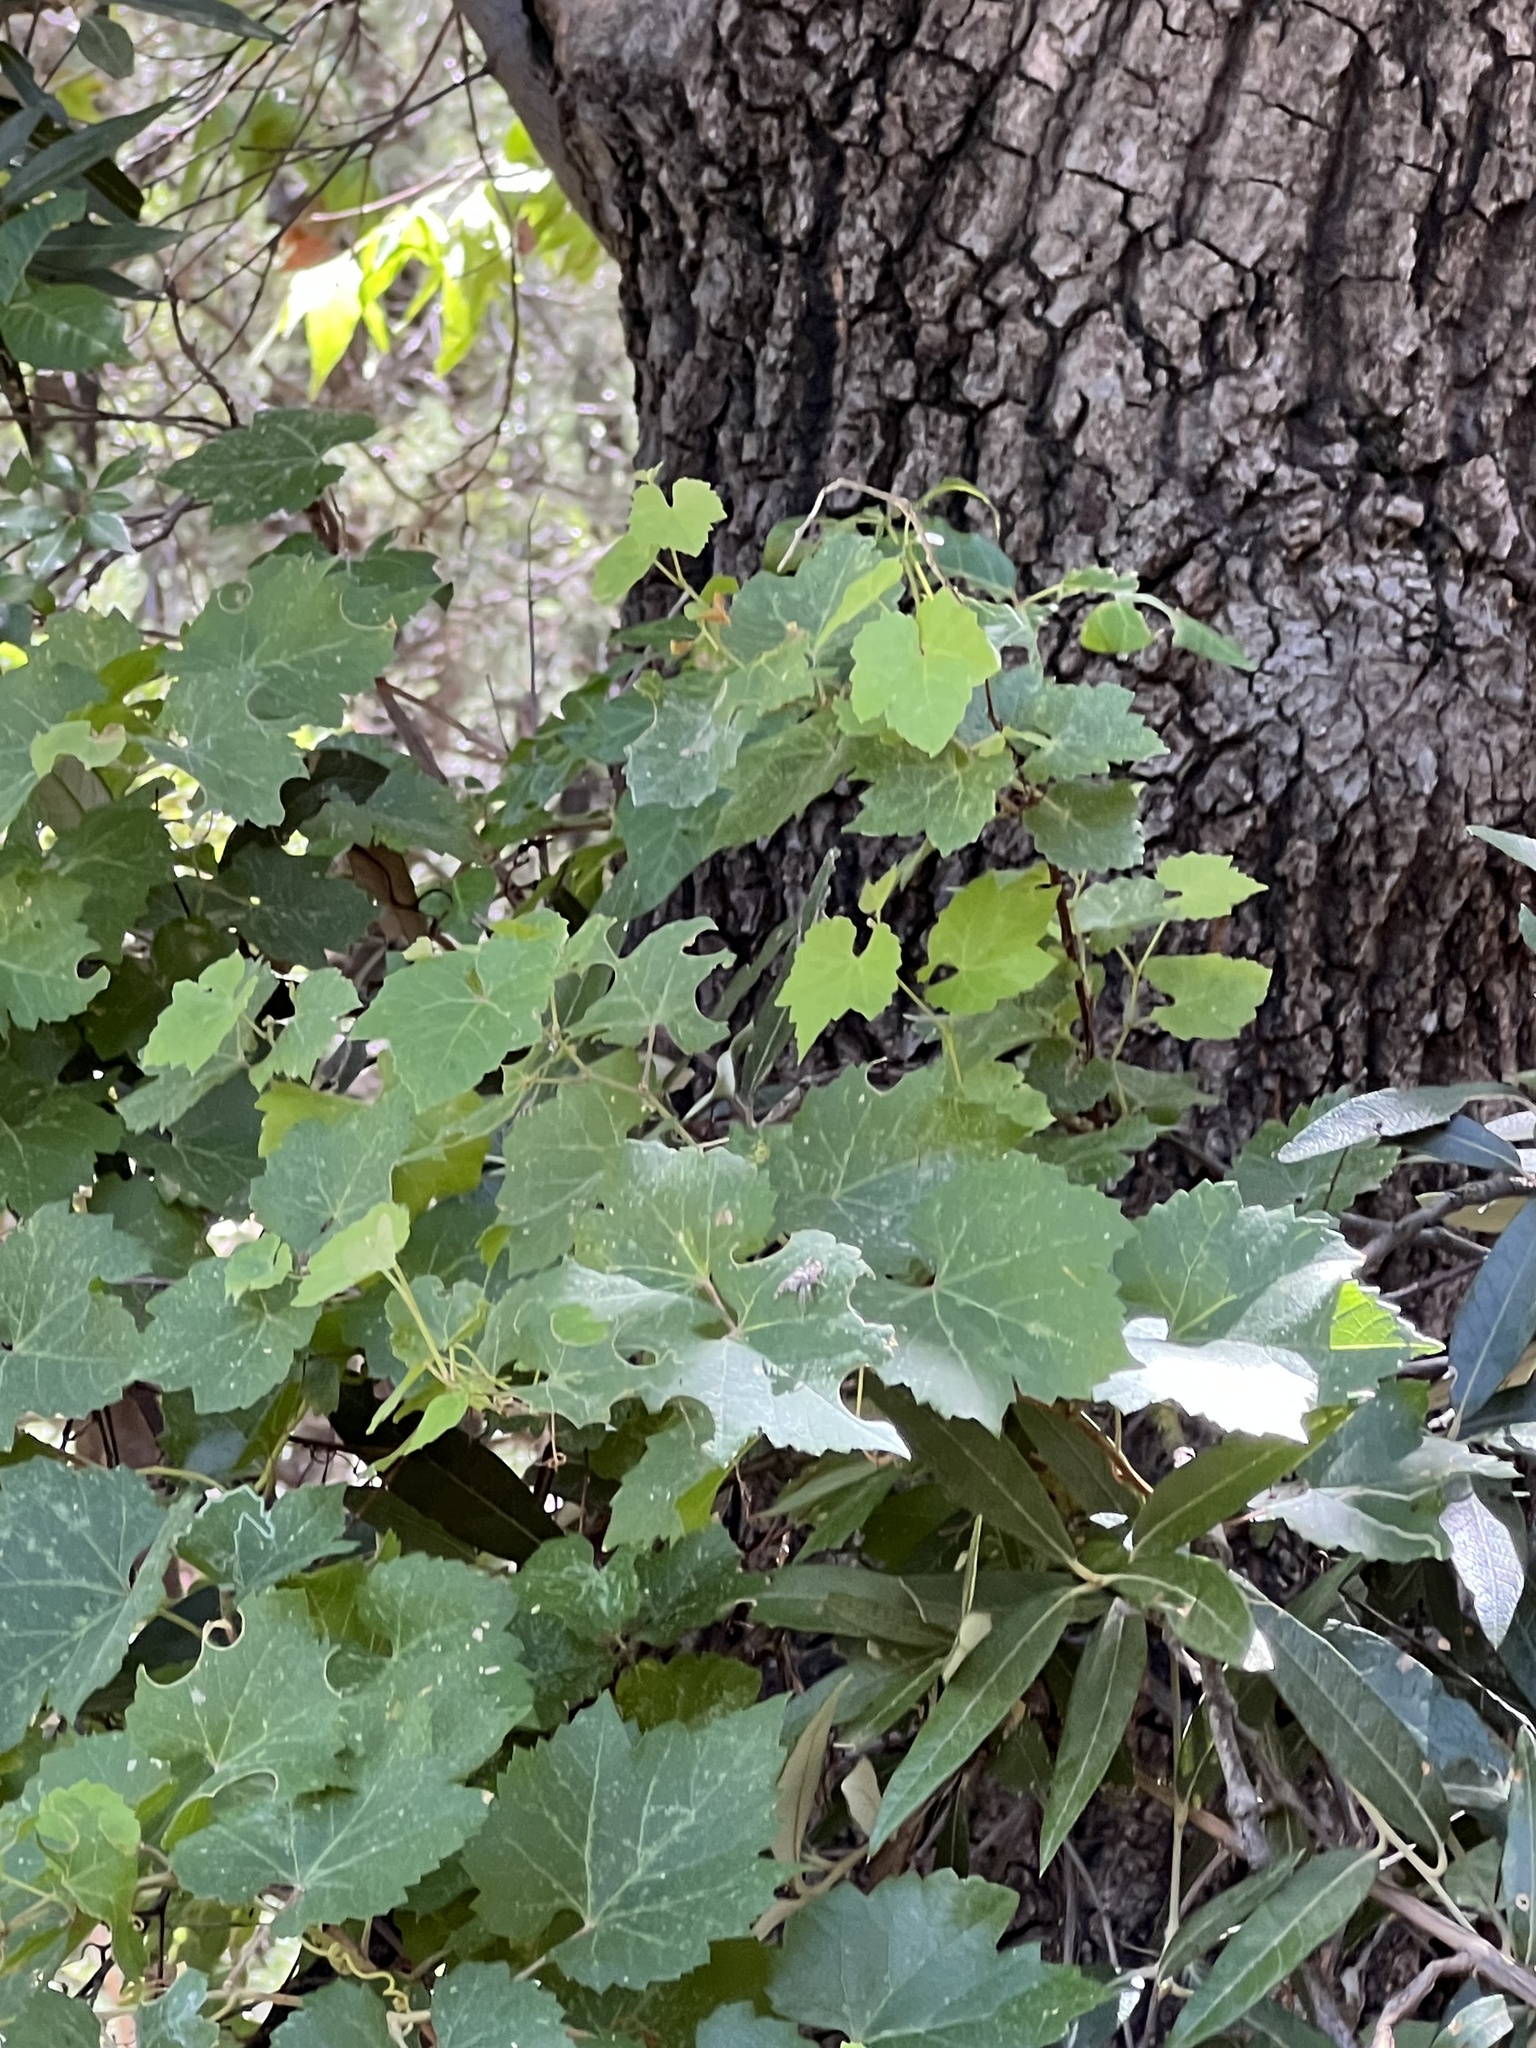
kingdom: Plantae
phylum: Tracheophyta
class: Magnoliopsida
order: Vitales
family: Vitaceae
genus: Vitis
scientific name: Vitis arizonica
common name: Canyon grape
